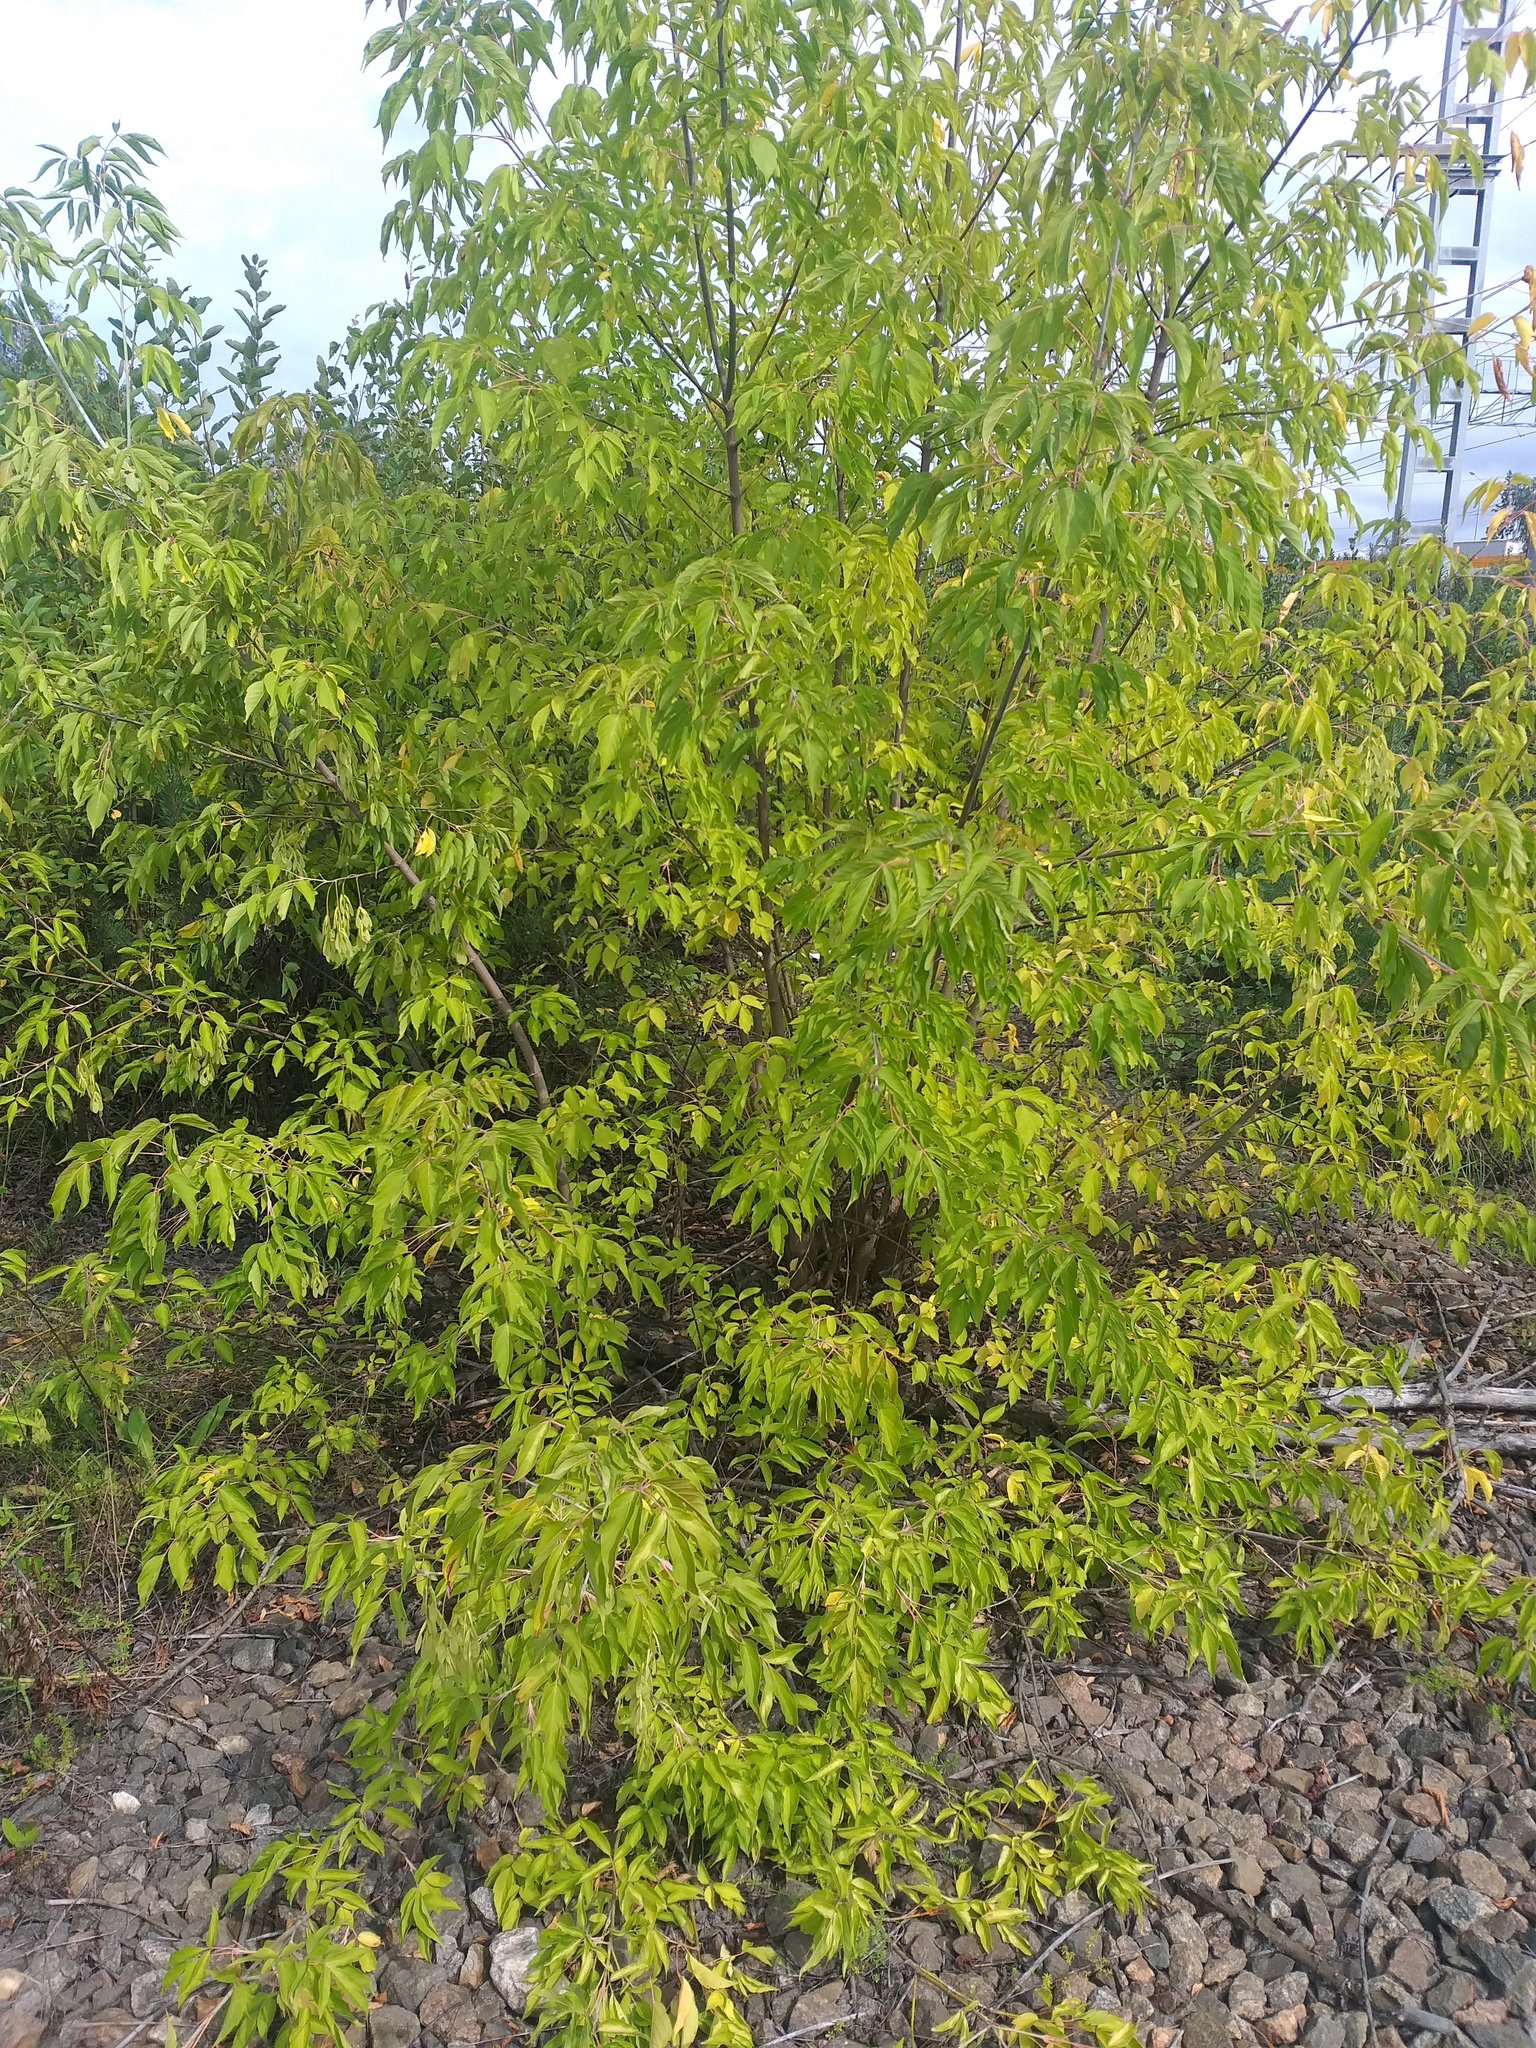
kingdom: Plantae
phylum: Tracheophyta
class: Magnoliopsida
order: Sapindales
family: Sapindaceae
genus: Acer
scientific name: Acer negundo
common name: Ashleaf maple
